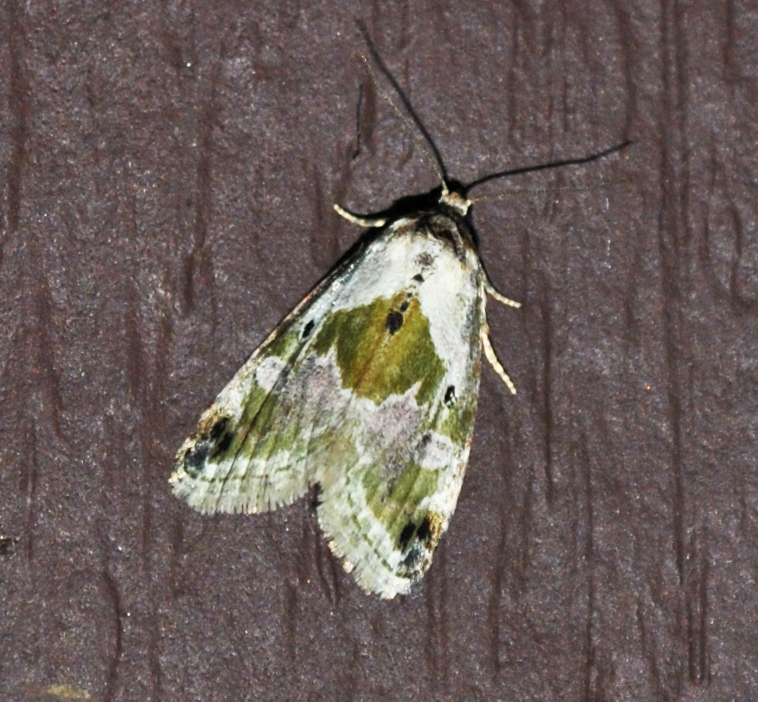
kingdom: Animalia
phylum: Arthropoda
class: Insecta
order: Lepidoptera
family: Noctuidae
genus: Maliattha
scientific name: Maliattha synochitis
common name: Black-dotted glyph
